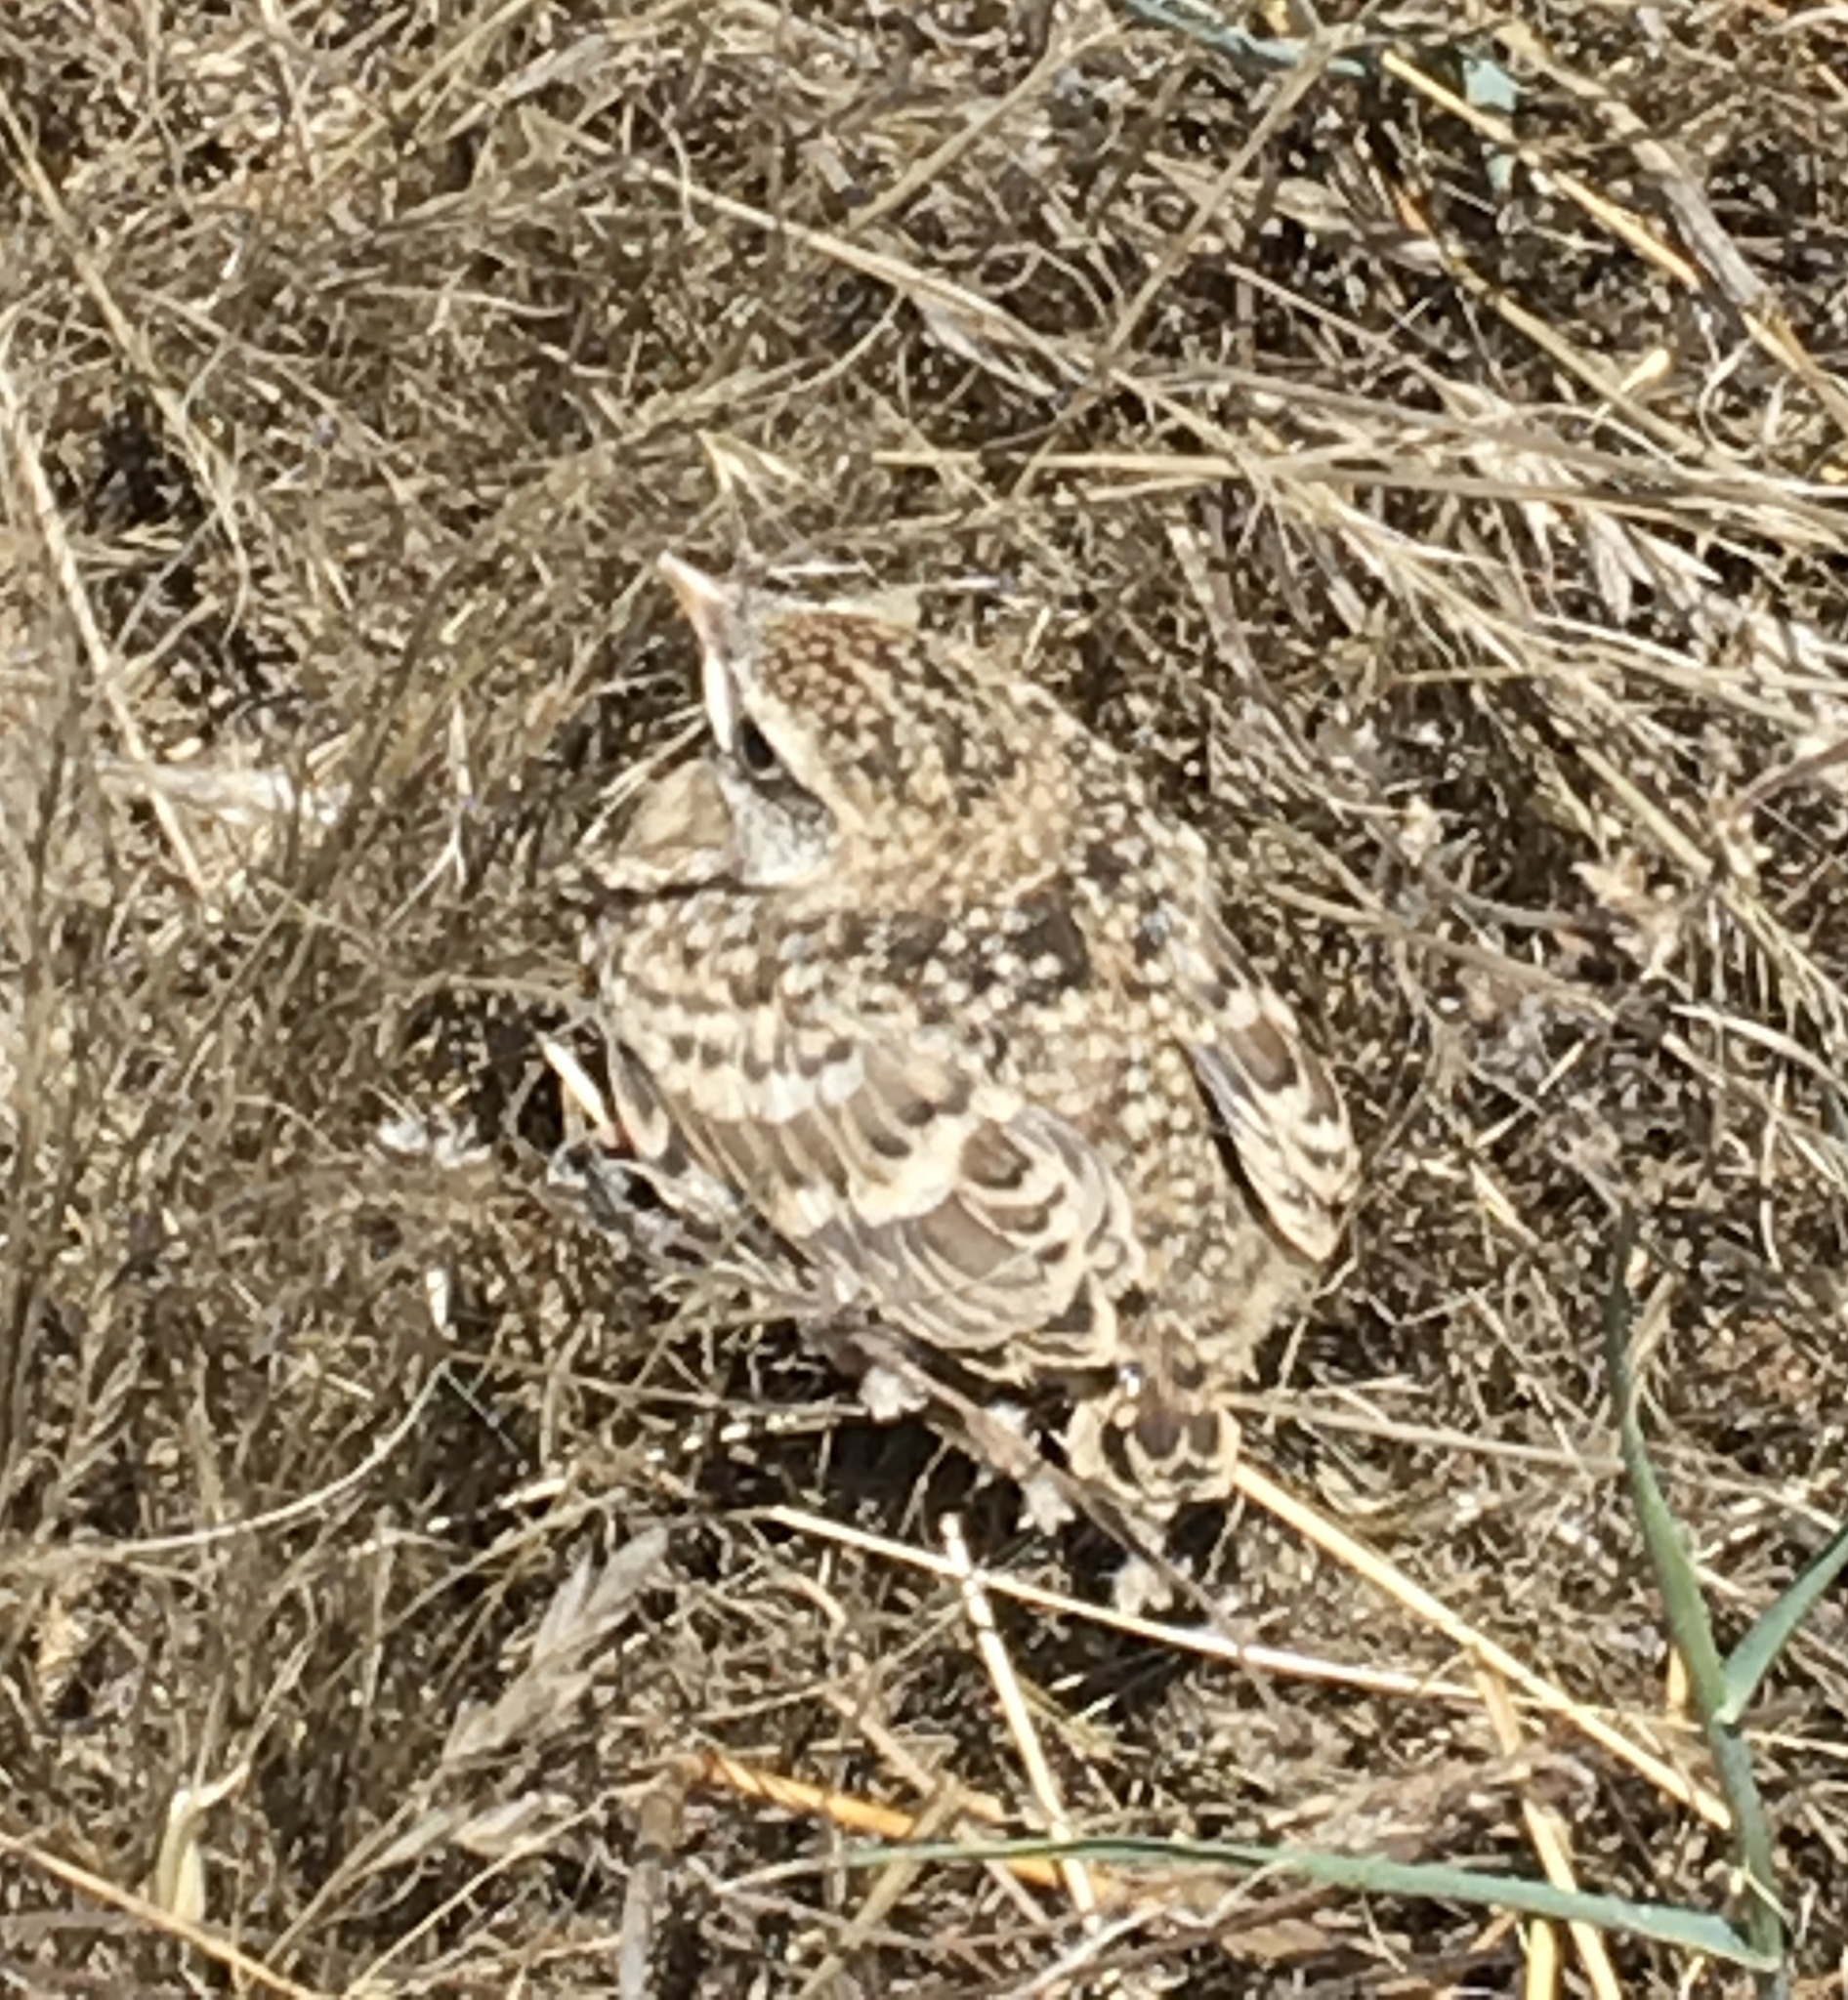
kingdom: Animalia
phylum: Chordata
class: Aves
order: Passeriformes
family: Alaudidae
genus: Eremophila
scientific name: Eremophila alpestris
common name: Horned lark
